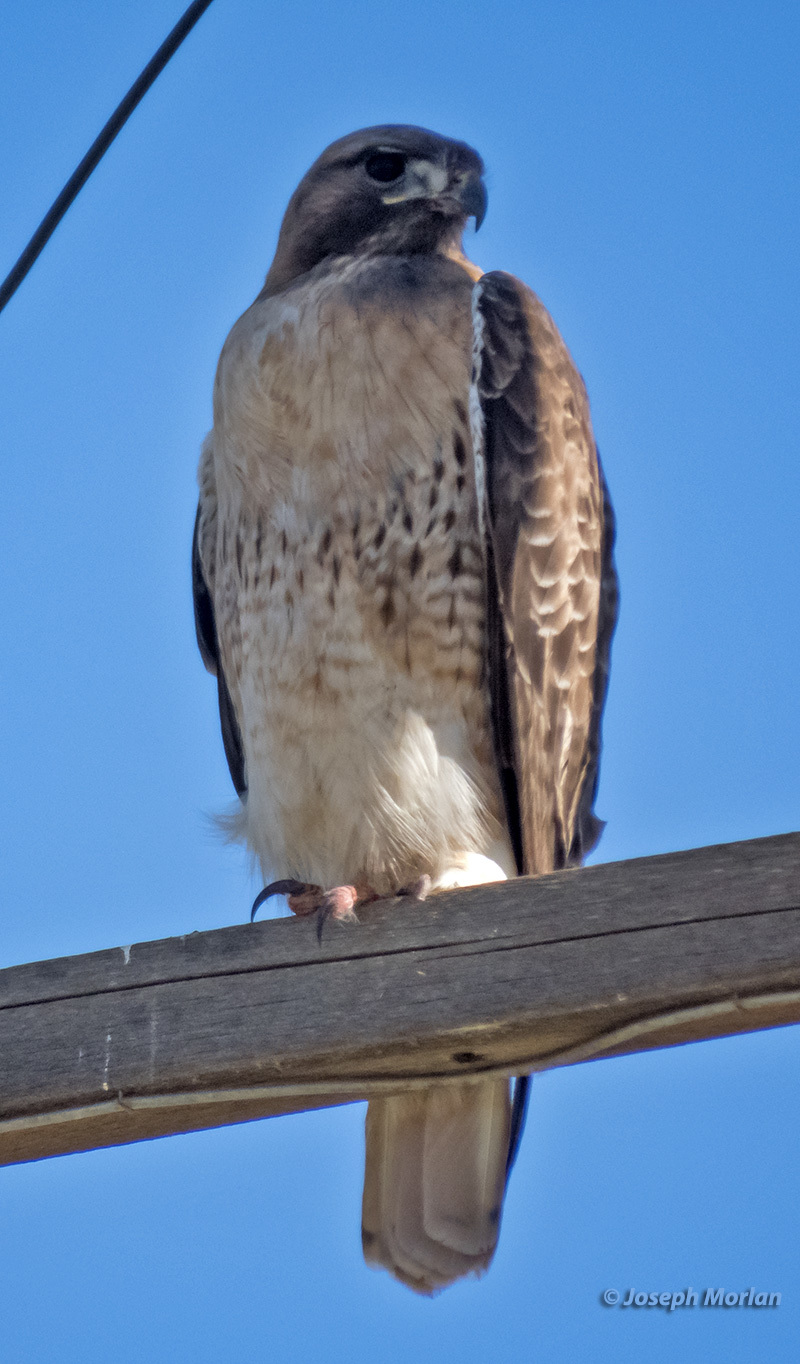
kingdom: Animalia
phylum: Chordata
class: Aves
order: Accipitriformes
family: Accipitridae
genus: Buteo
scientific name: Buteo jamaicensis
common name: Red-tailed hawk
